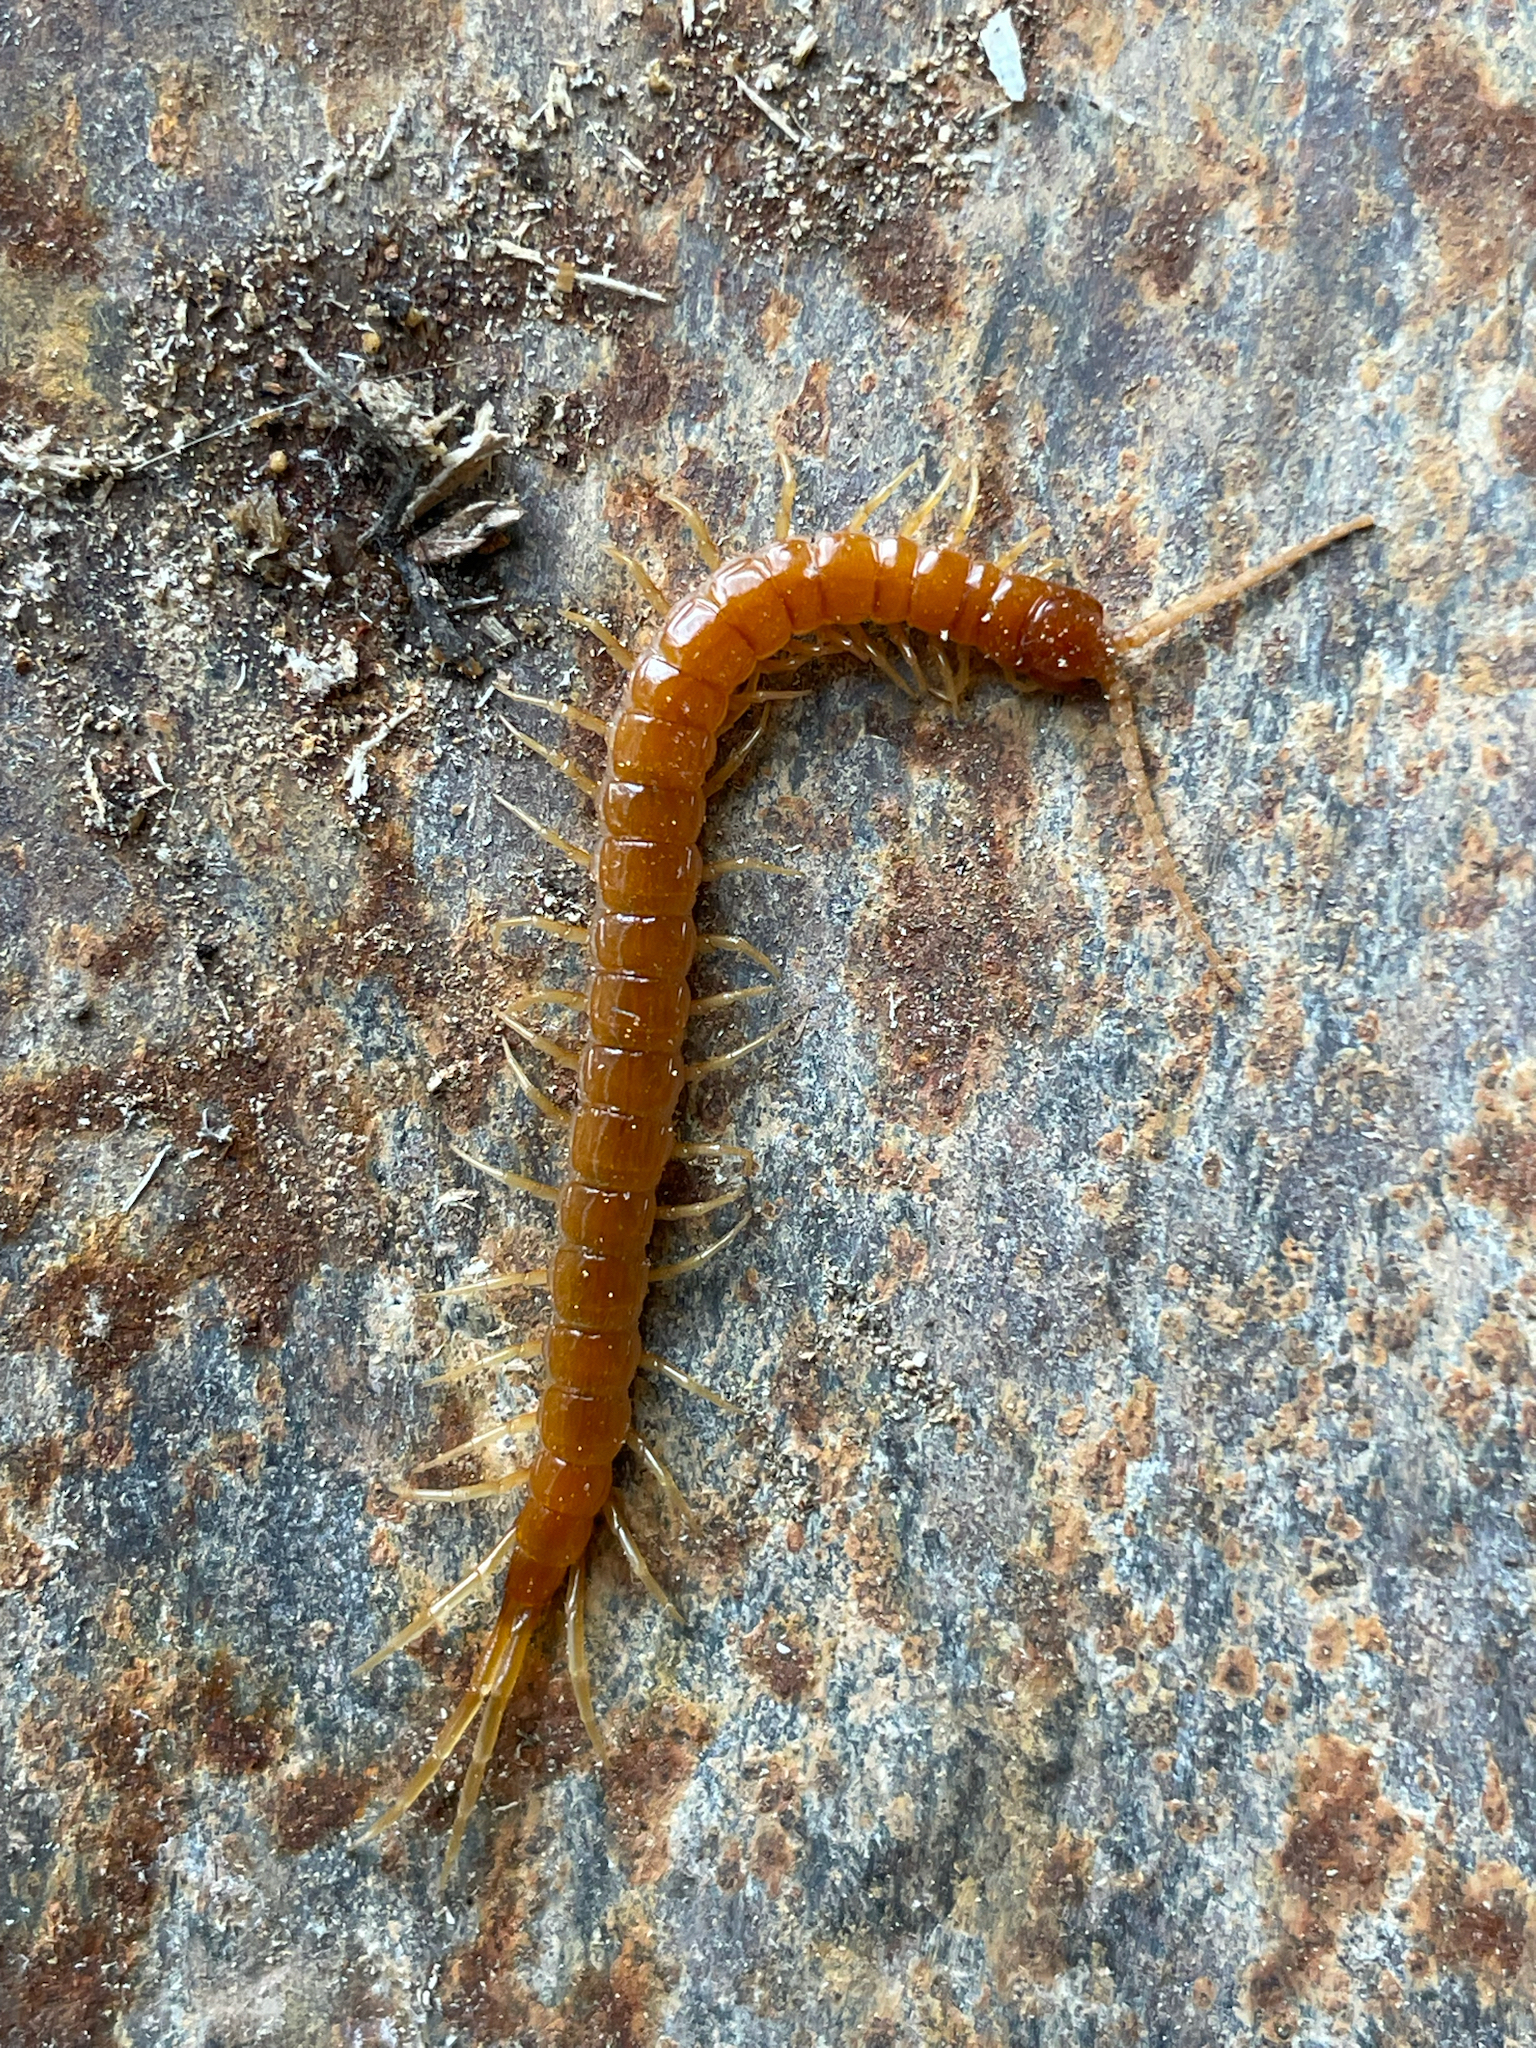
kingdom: Animalia
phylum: Arthropoda
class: Chilopoda
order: Scolopendromorpha
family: Scolopocryptopidae
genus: Scolopocryptops
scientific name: Scolopocryptops sexspinosus
